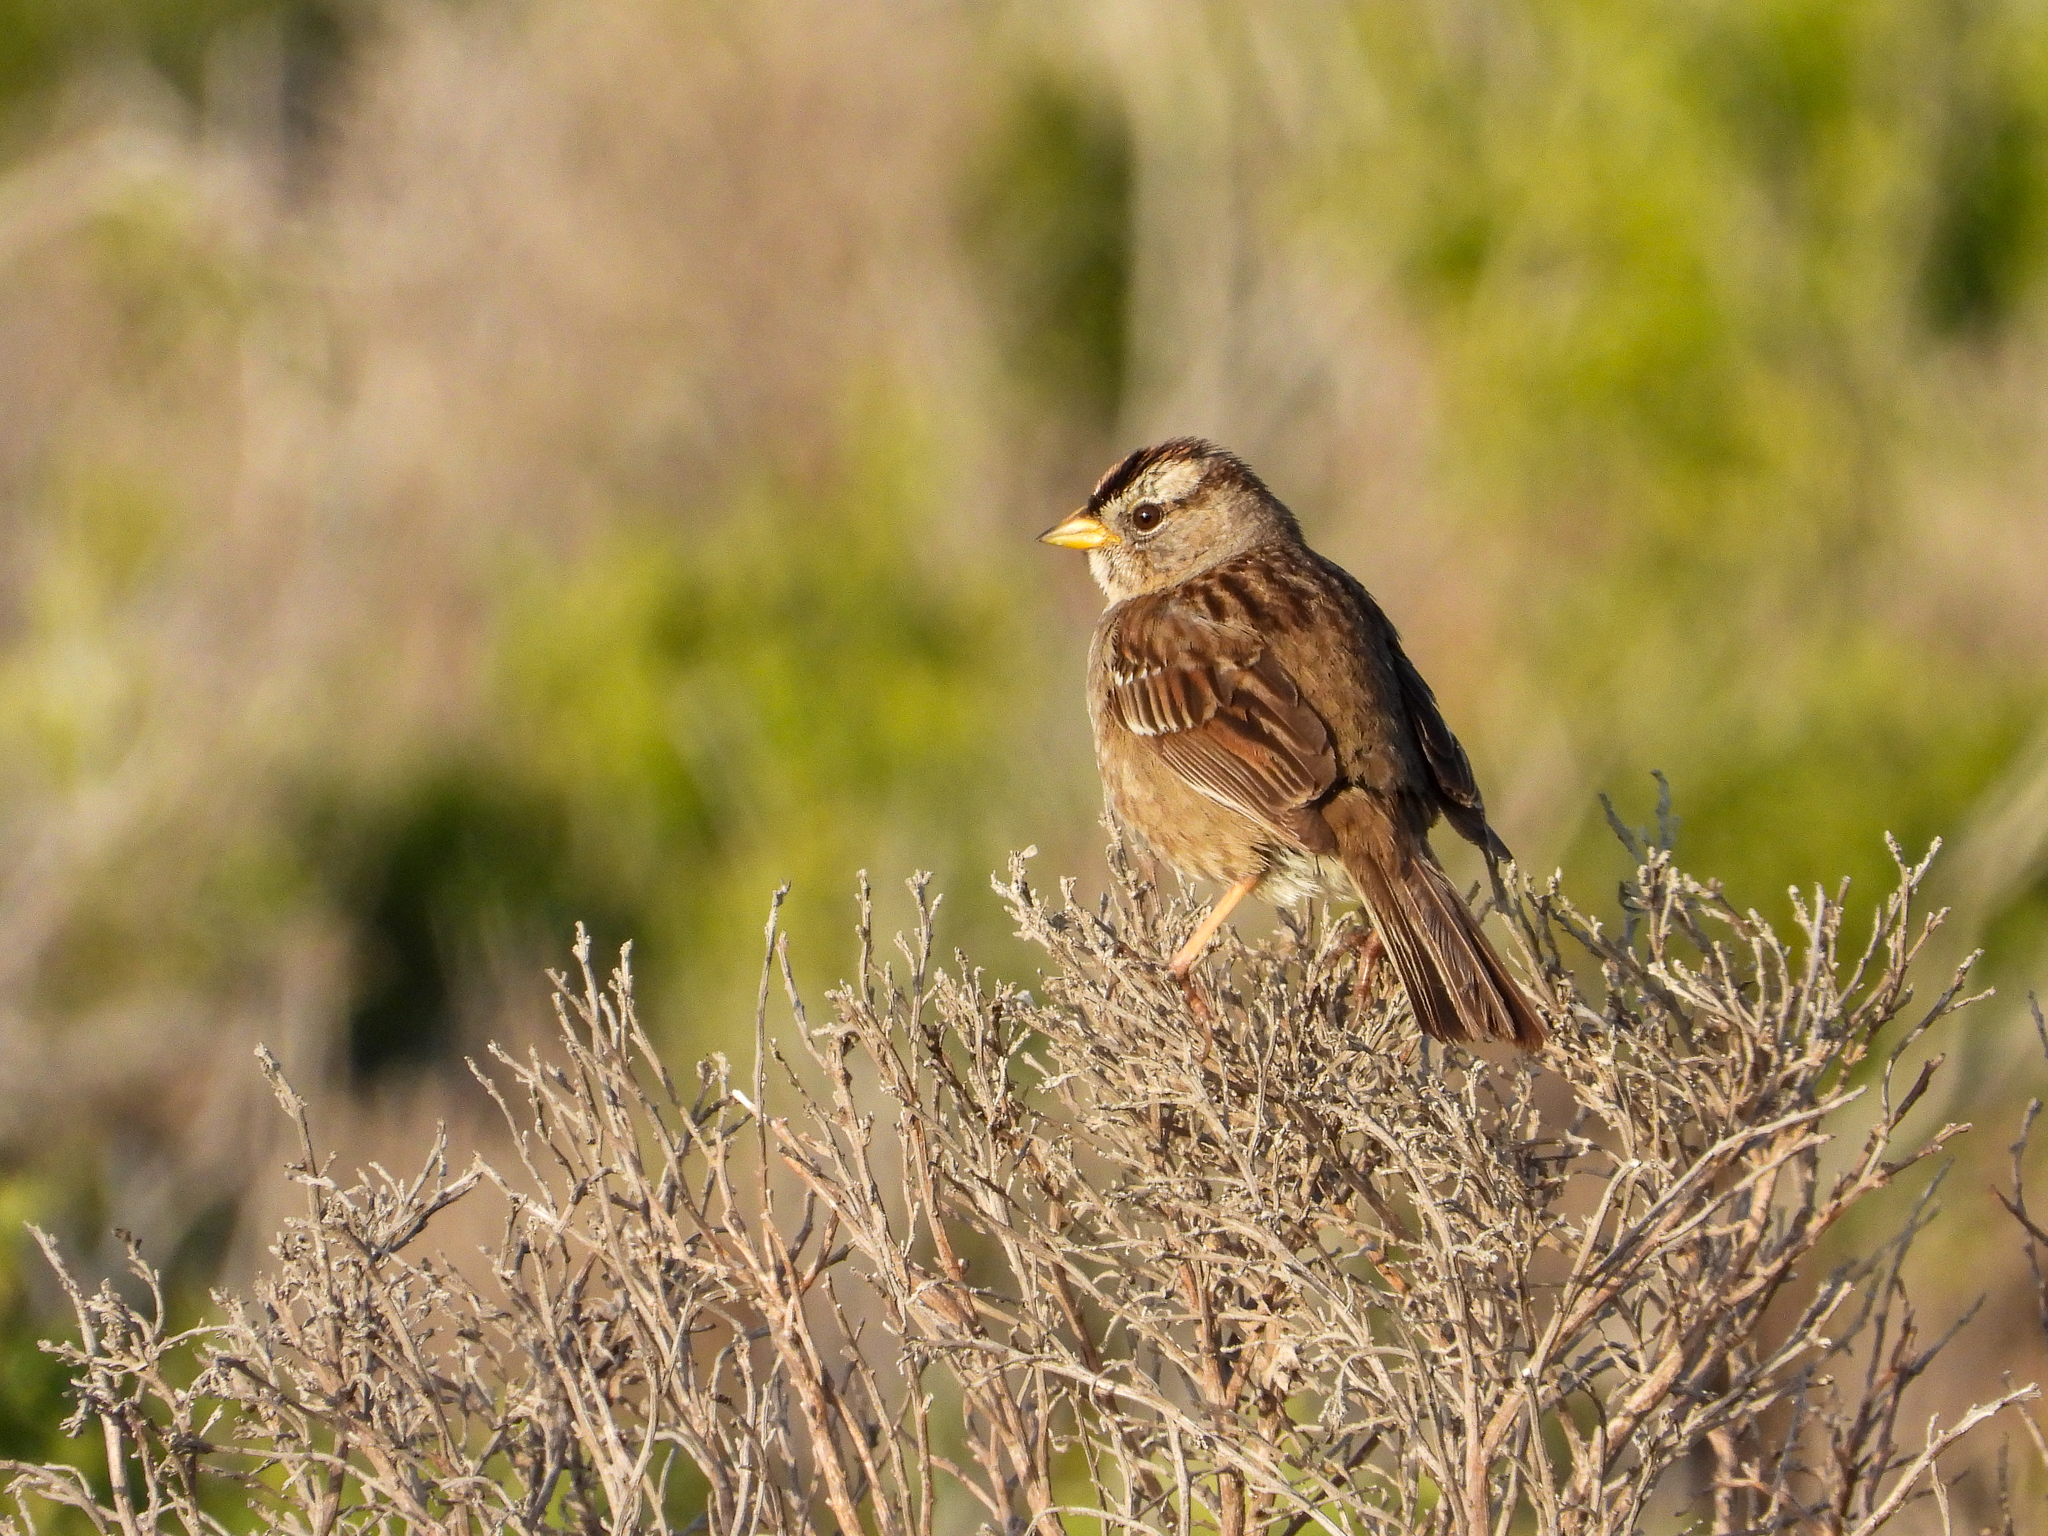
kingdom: Animalia
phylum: Chordata
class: Aves
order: Passeriformes
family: Passerellidae
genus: Zonotrichia
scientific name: Zonotrichia leucophrys
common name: White-crowned sparrow
